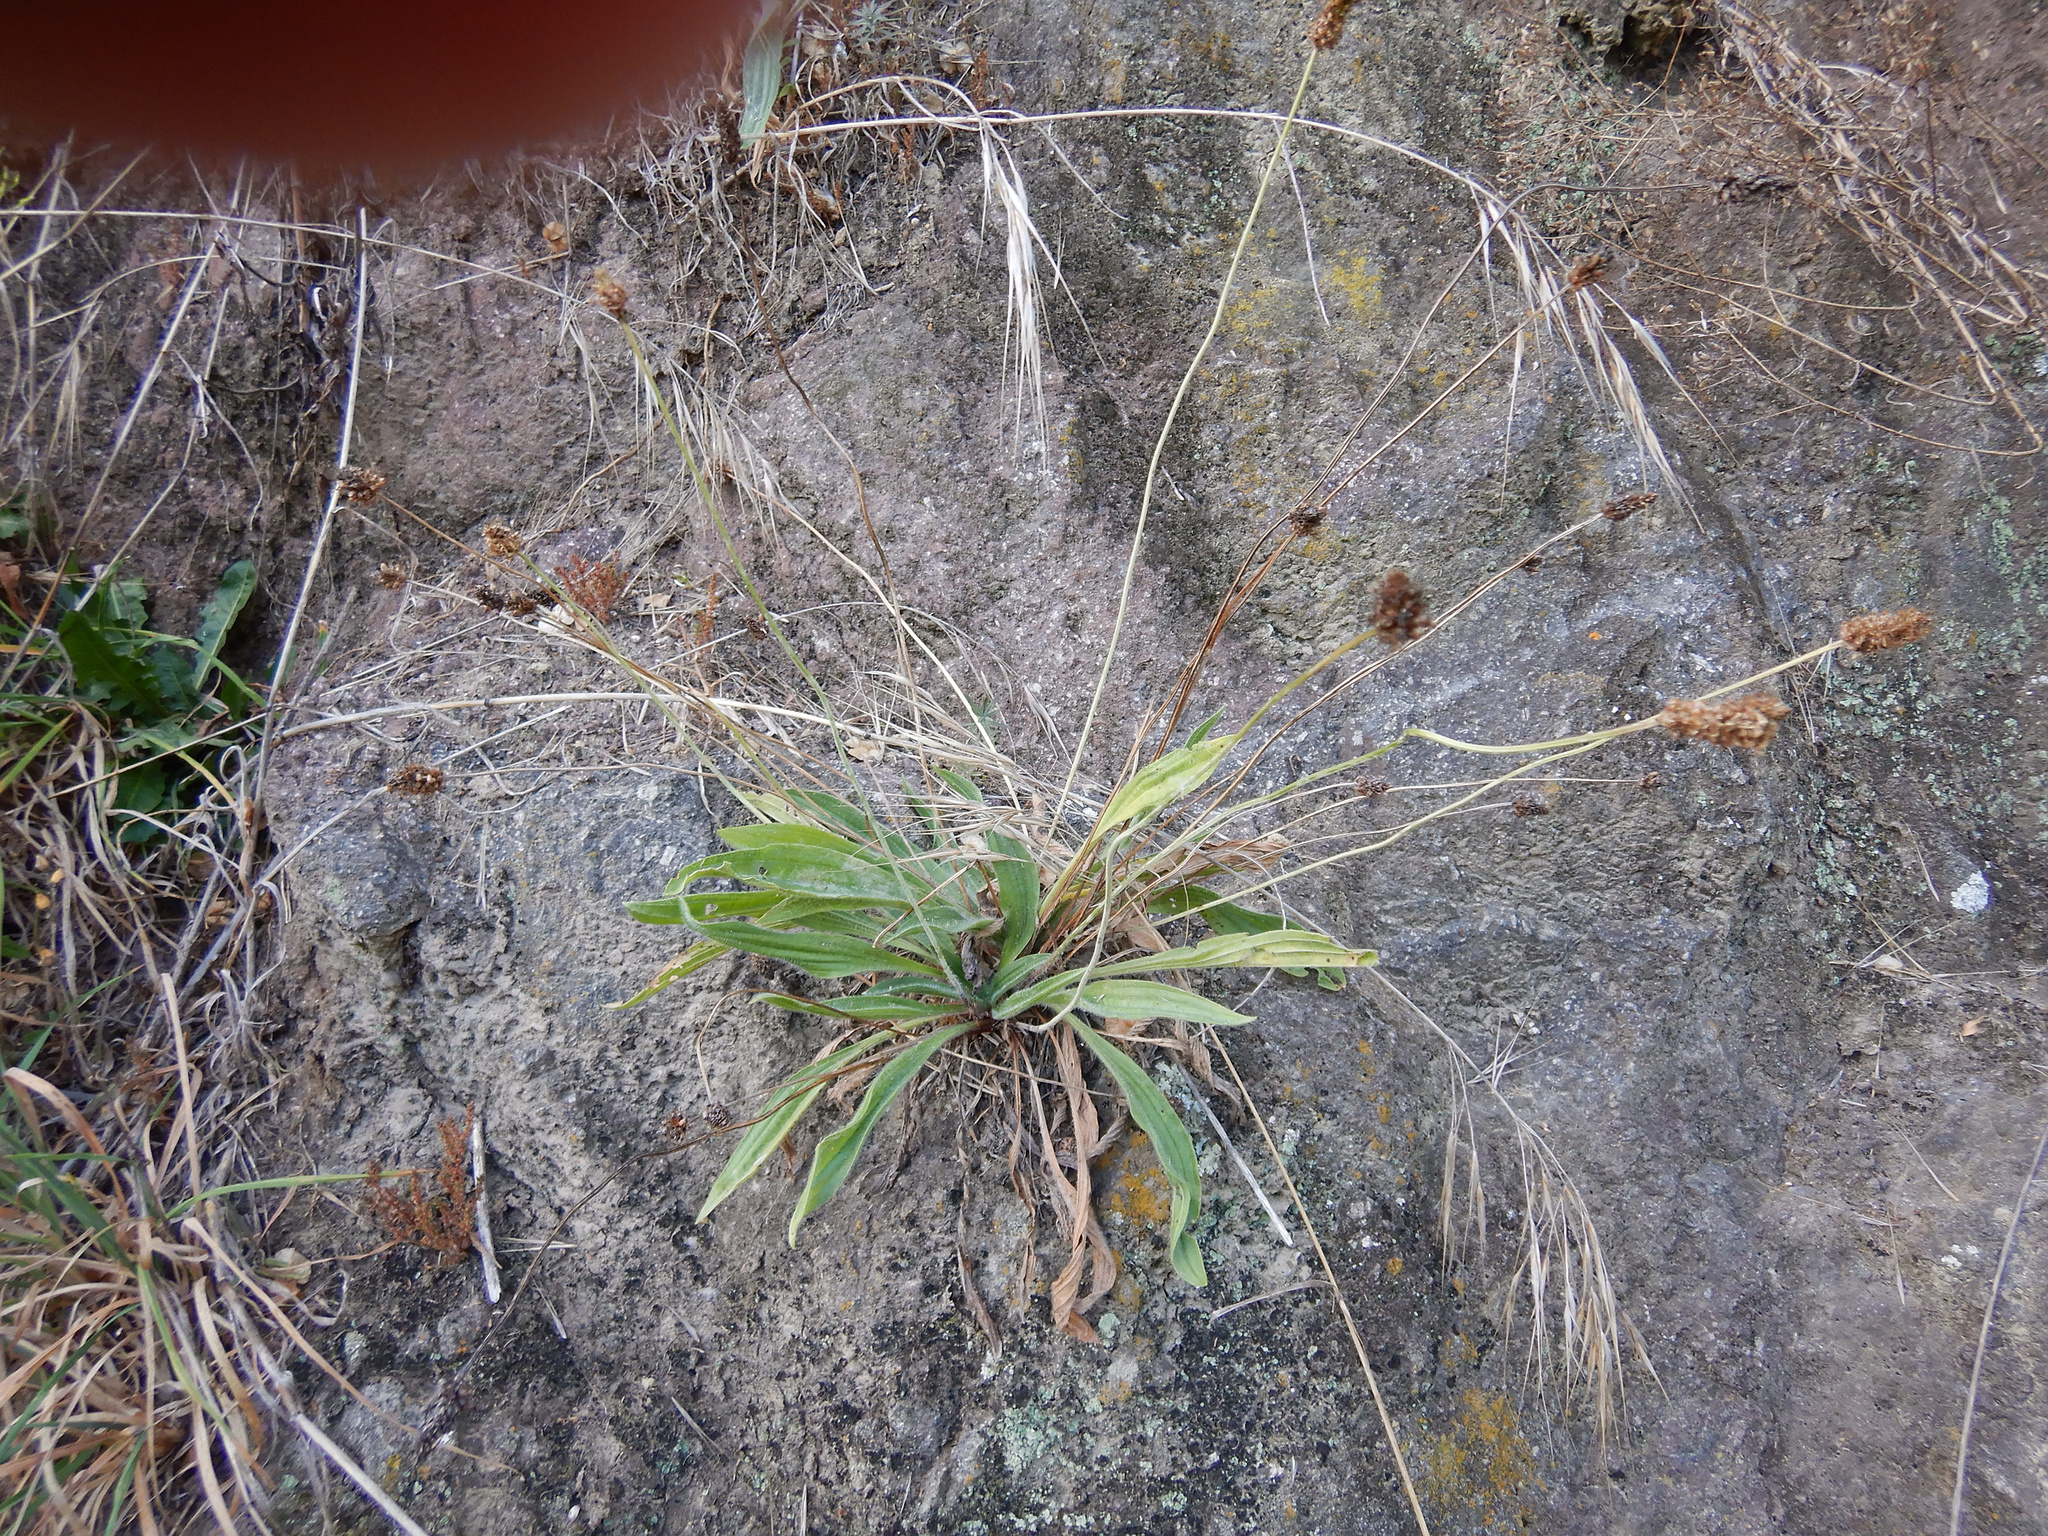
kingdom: Plantae
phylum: Tracheophyta
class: Magnoliopsida
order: Lamiales
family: Plantaginaceae
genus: Plantago
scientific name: Plantago lanceolata
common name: Ribwort plantain
